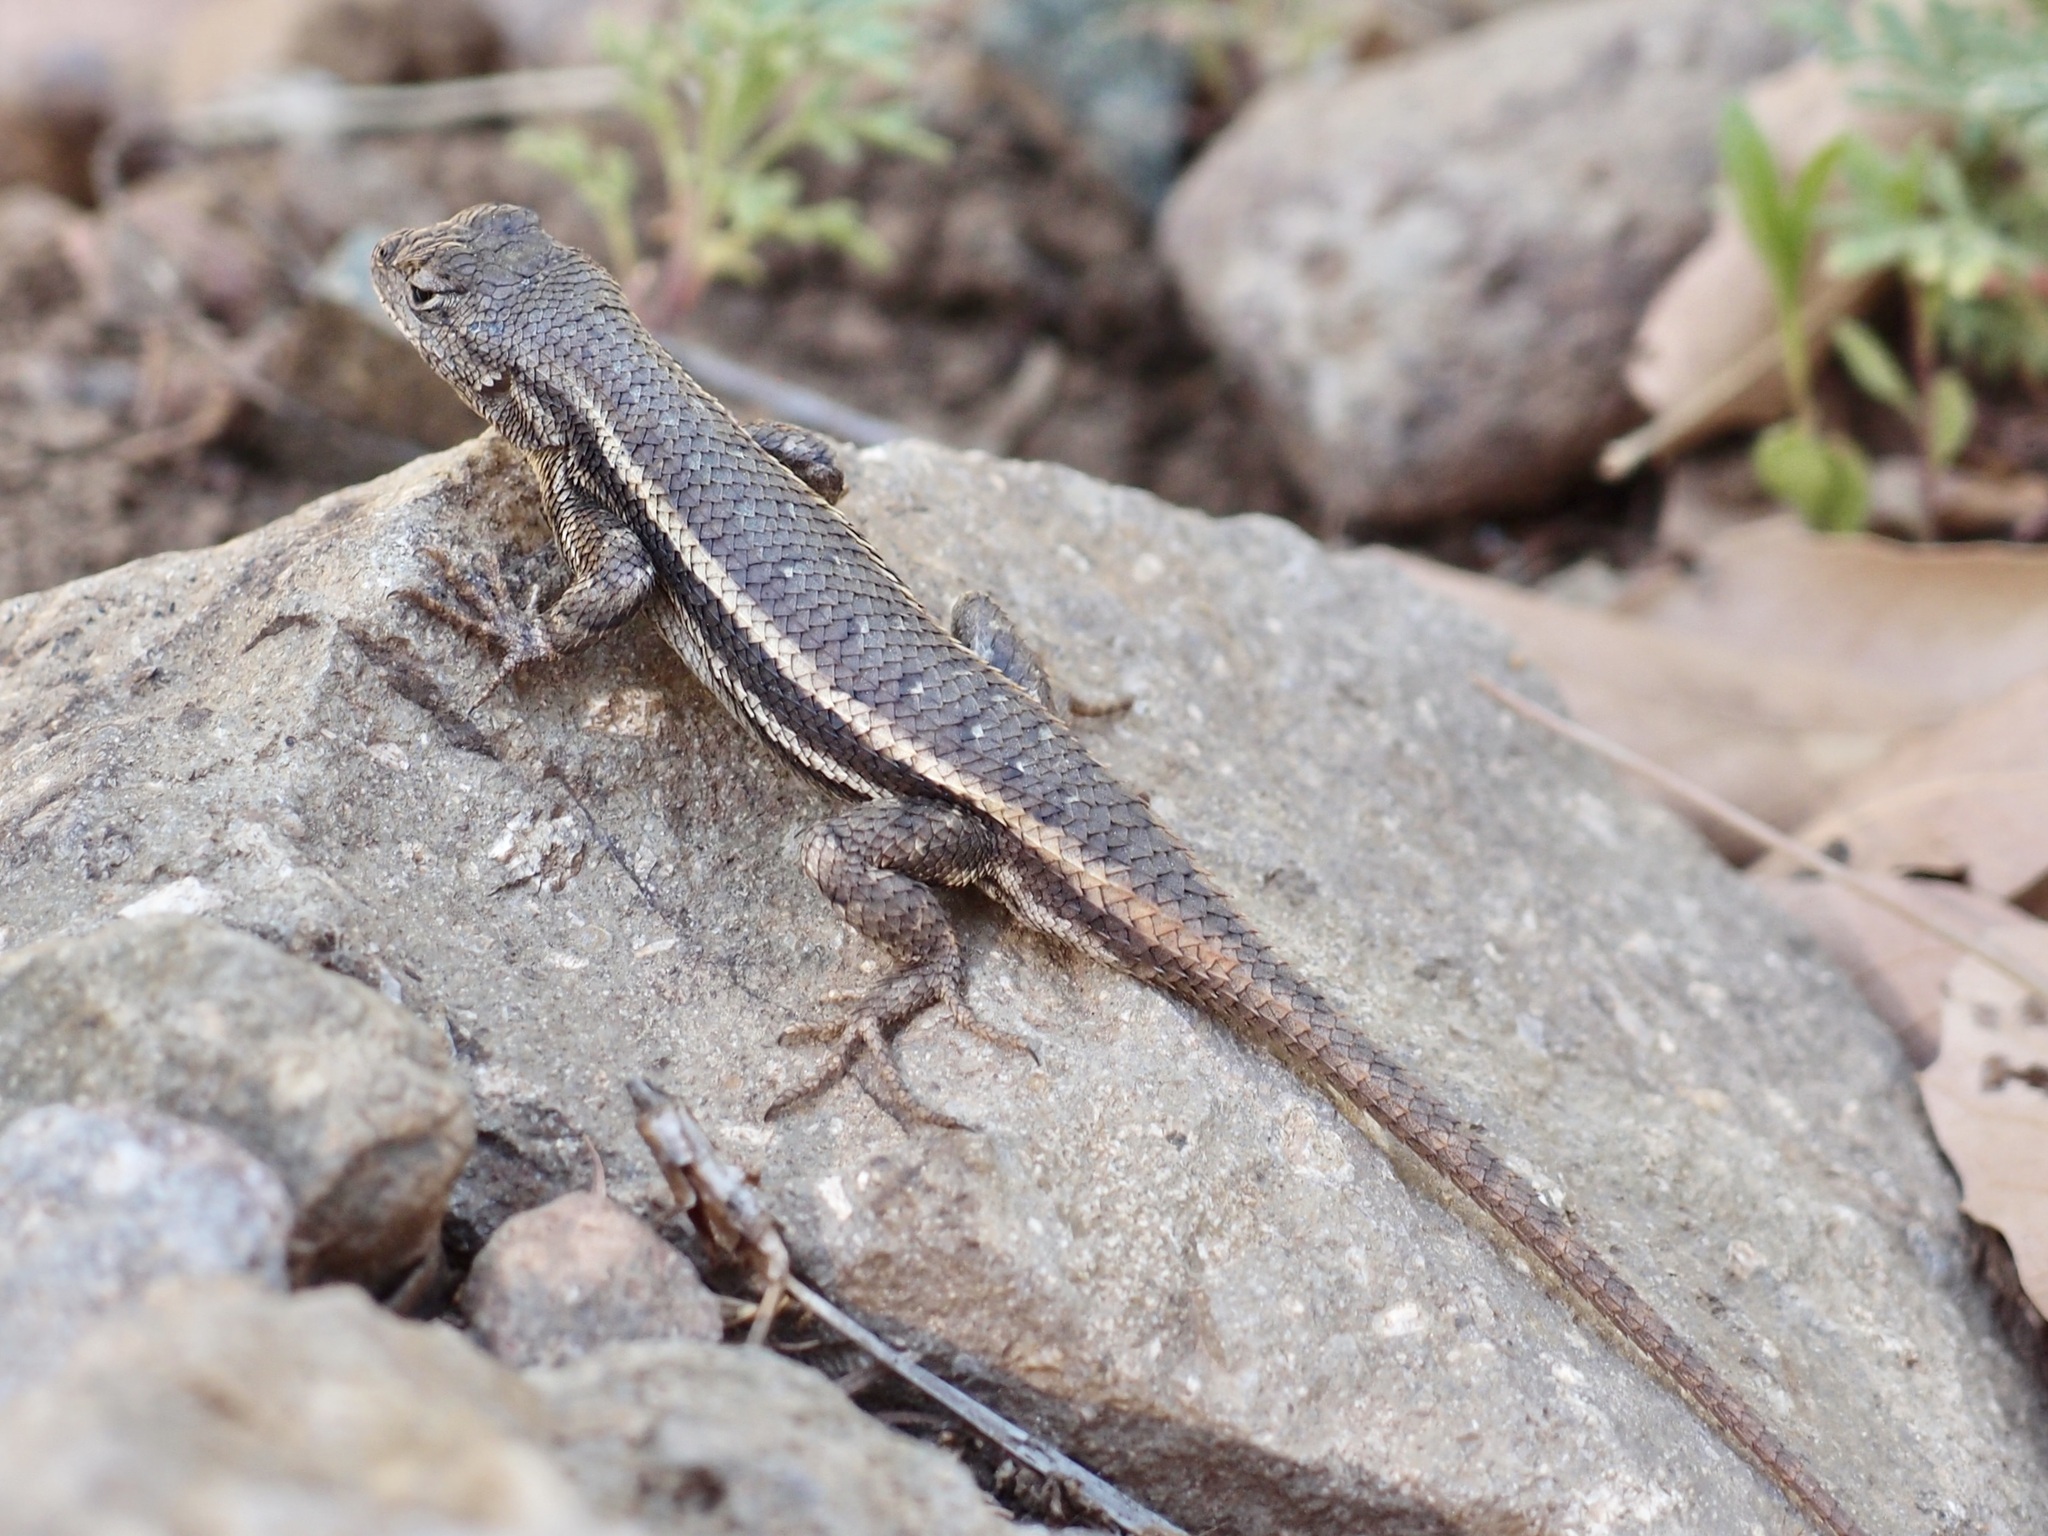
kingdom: Animalia
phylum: Chordata
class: Squamata
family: Phrynosomatidae
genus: Sceloporus
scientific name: Sceloporus virgatus
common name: Striped plateau lizard
